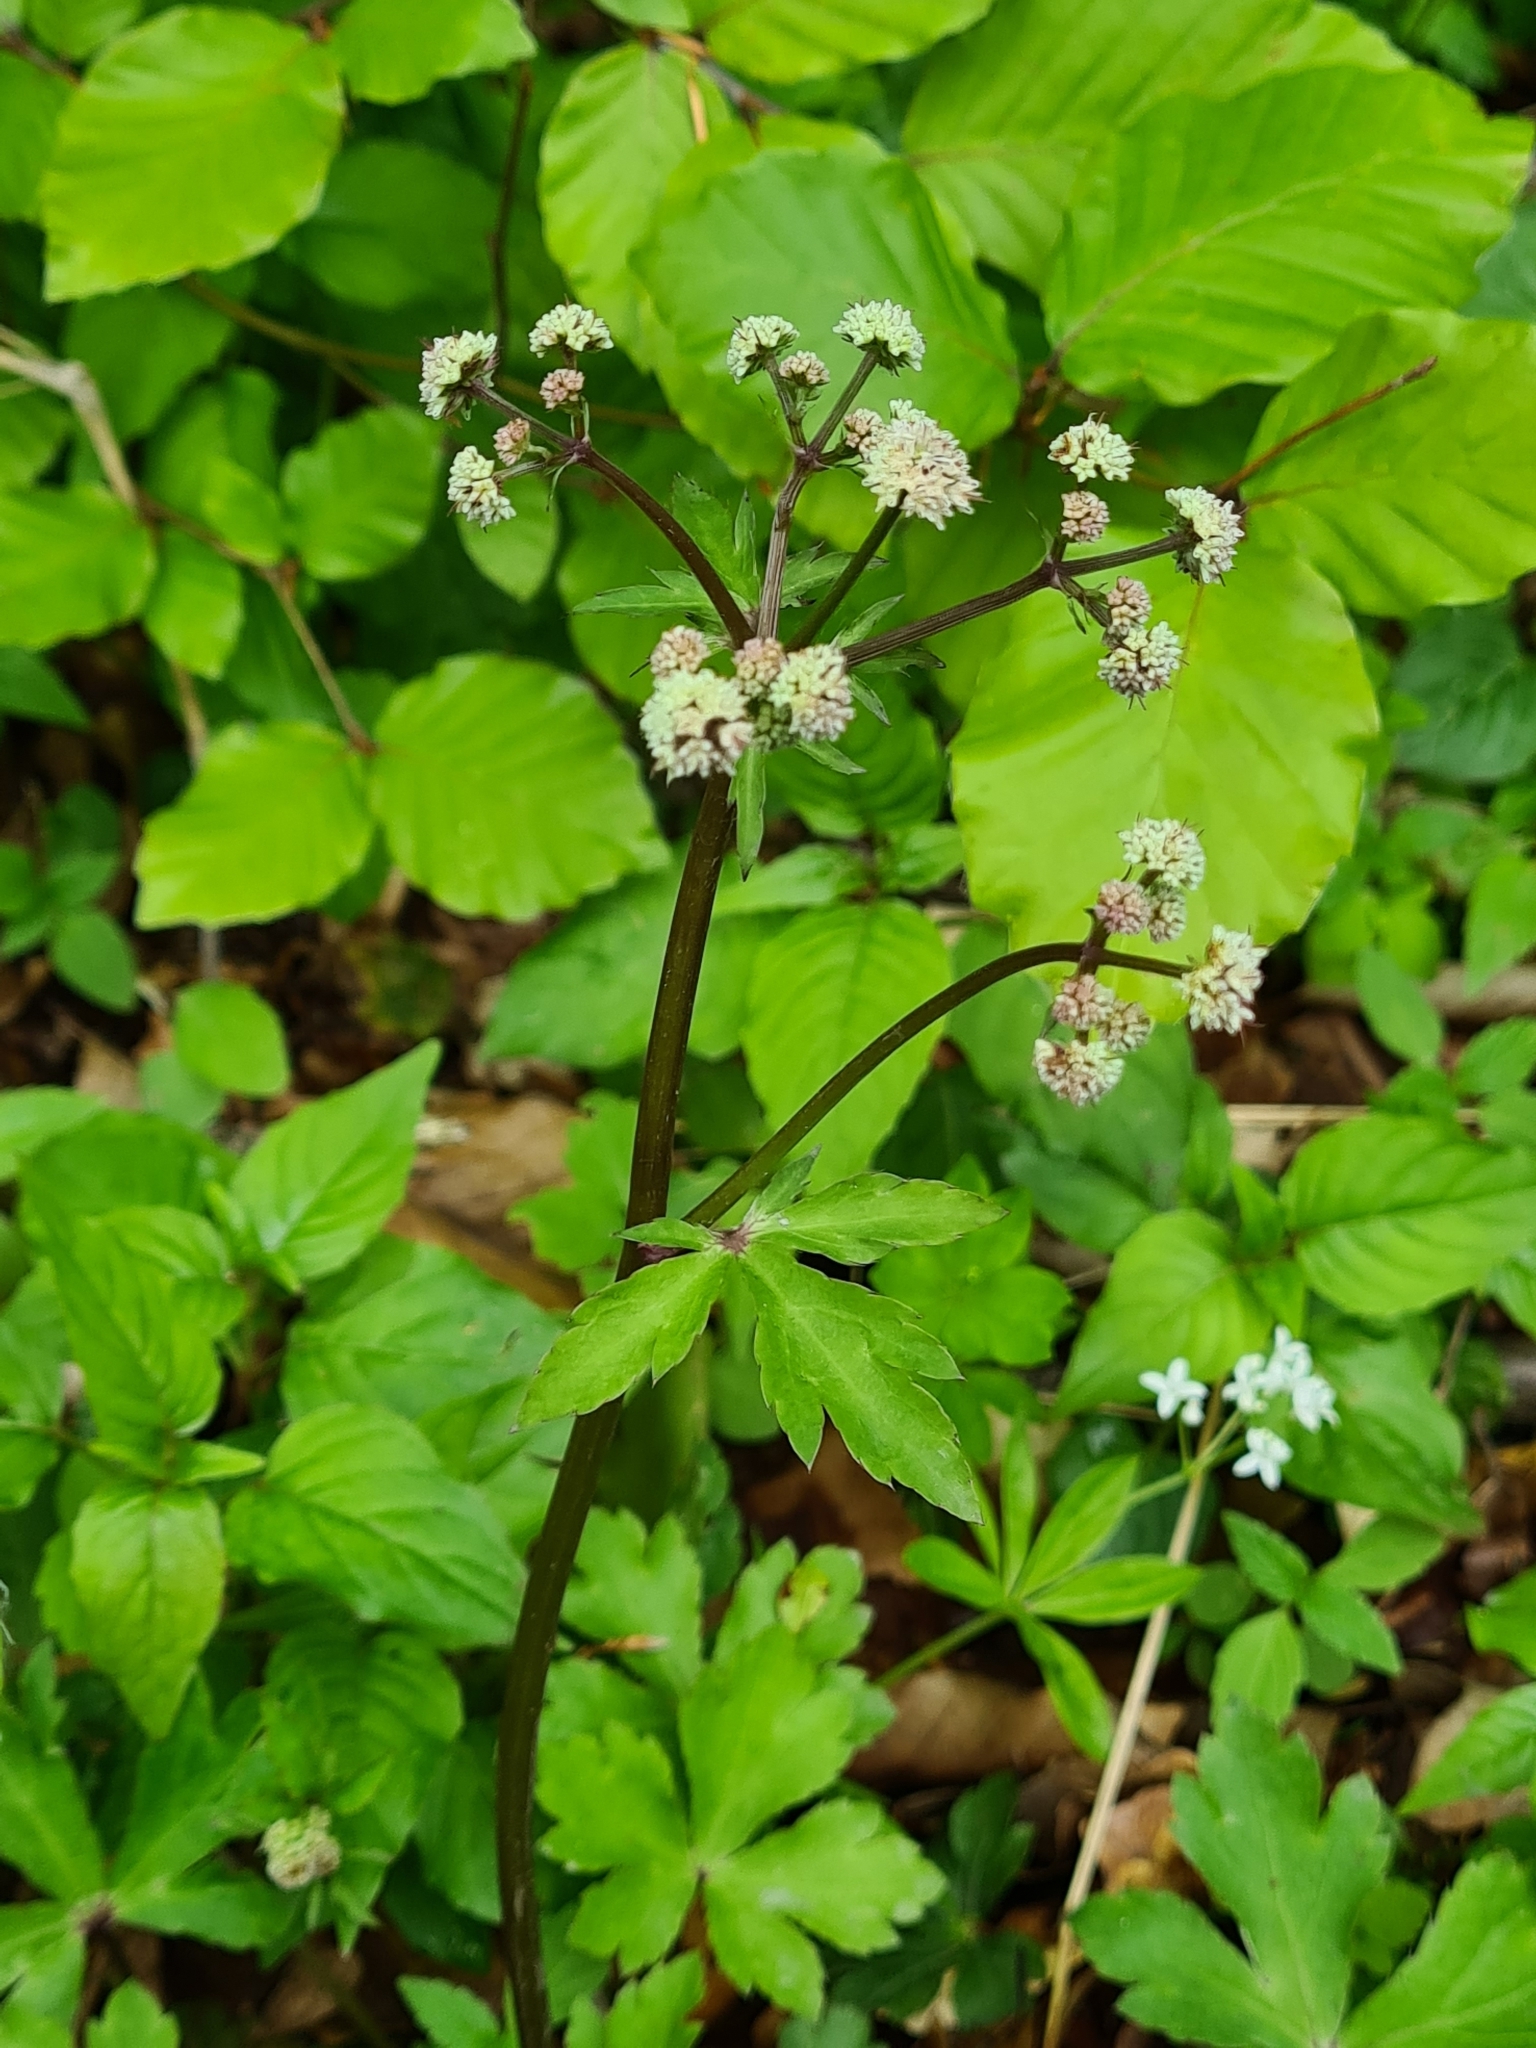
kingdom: Plantae
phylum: Tracheophyta
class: Magnoliopsida
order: Apiales
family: Apiaceae
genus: Sanicula
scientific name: Sanicula europaea
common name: Sanicle
